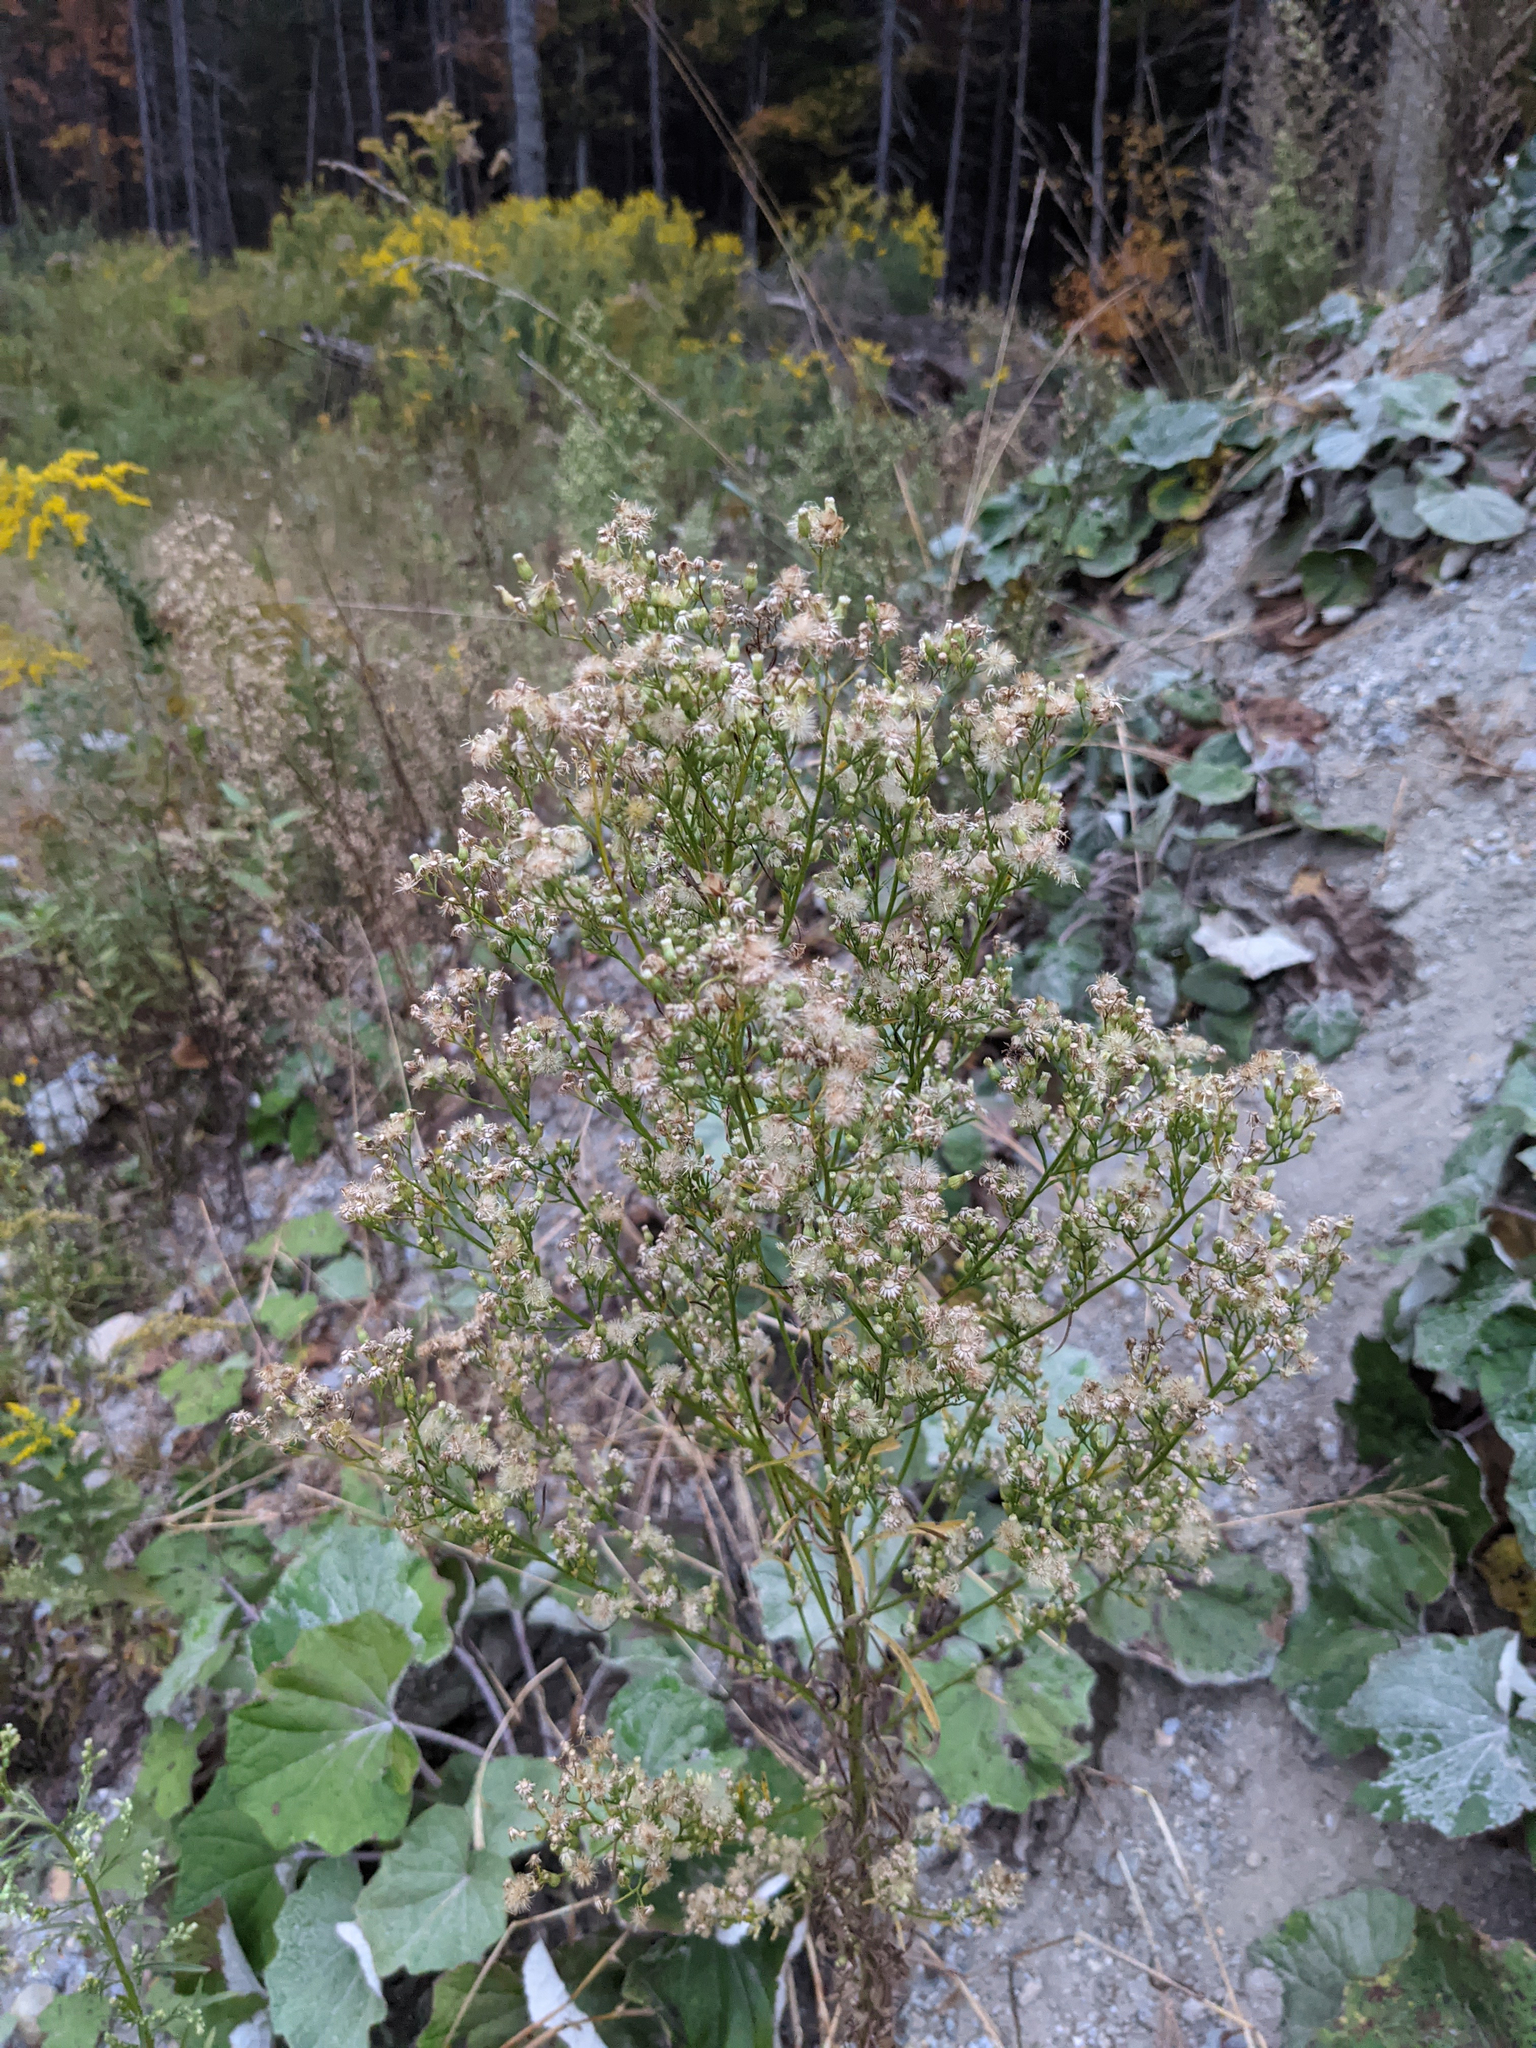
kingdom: Plantae
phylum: Tracheophyta
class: Magnoliopsida
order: Asterales
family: Asteraceae
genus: Erigeron
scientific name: Erigeron canadensis
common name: Canadian fleabane
